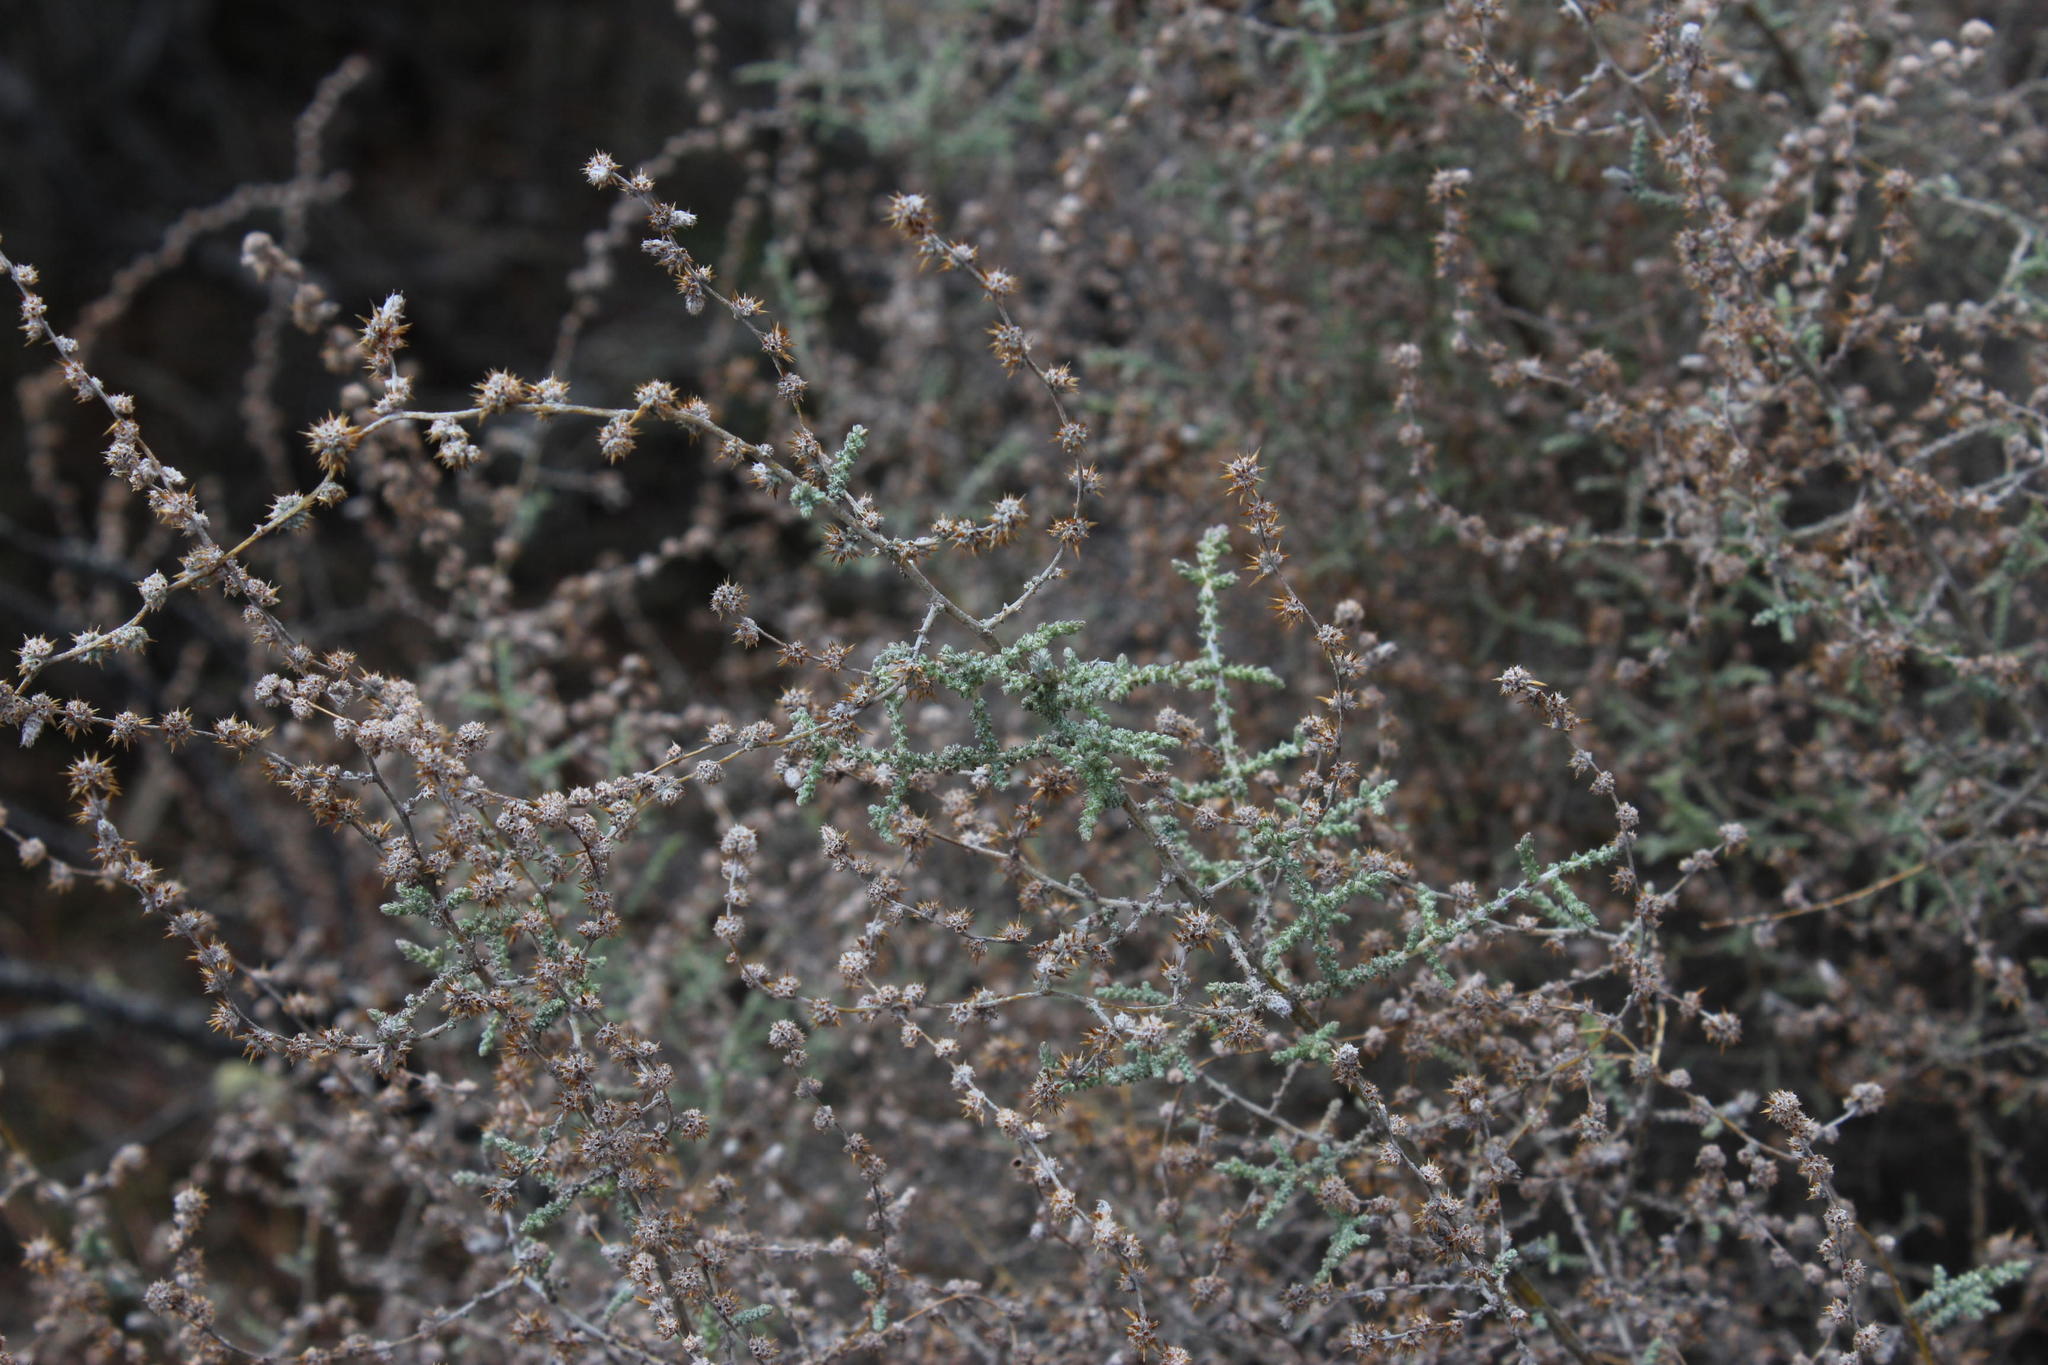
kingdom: Plantae
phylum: Tracheophyta
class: Magnoliopsida
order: Asterales
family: Asteraceae
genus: Seriphium
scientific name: Seriphium plumosum
